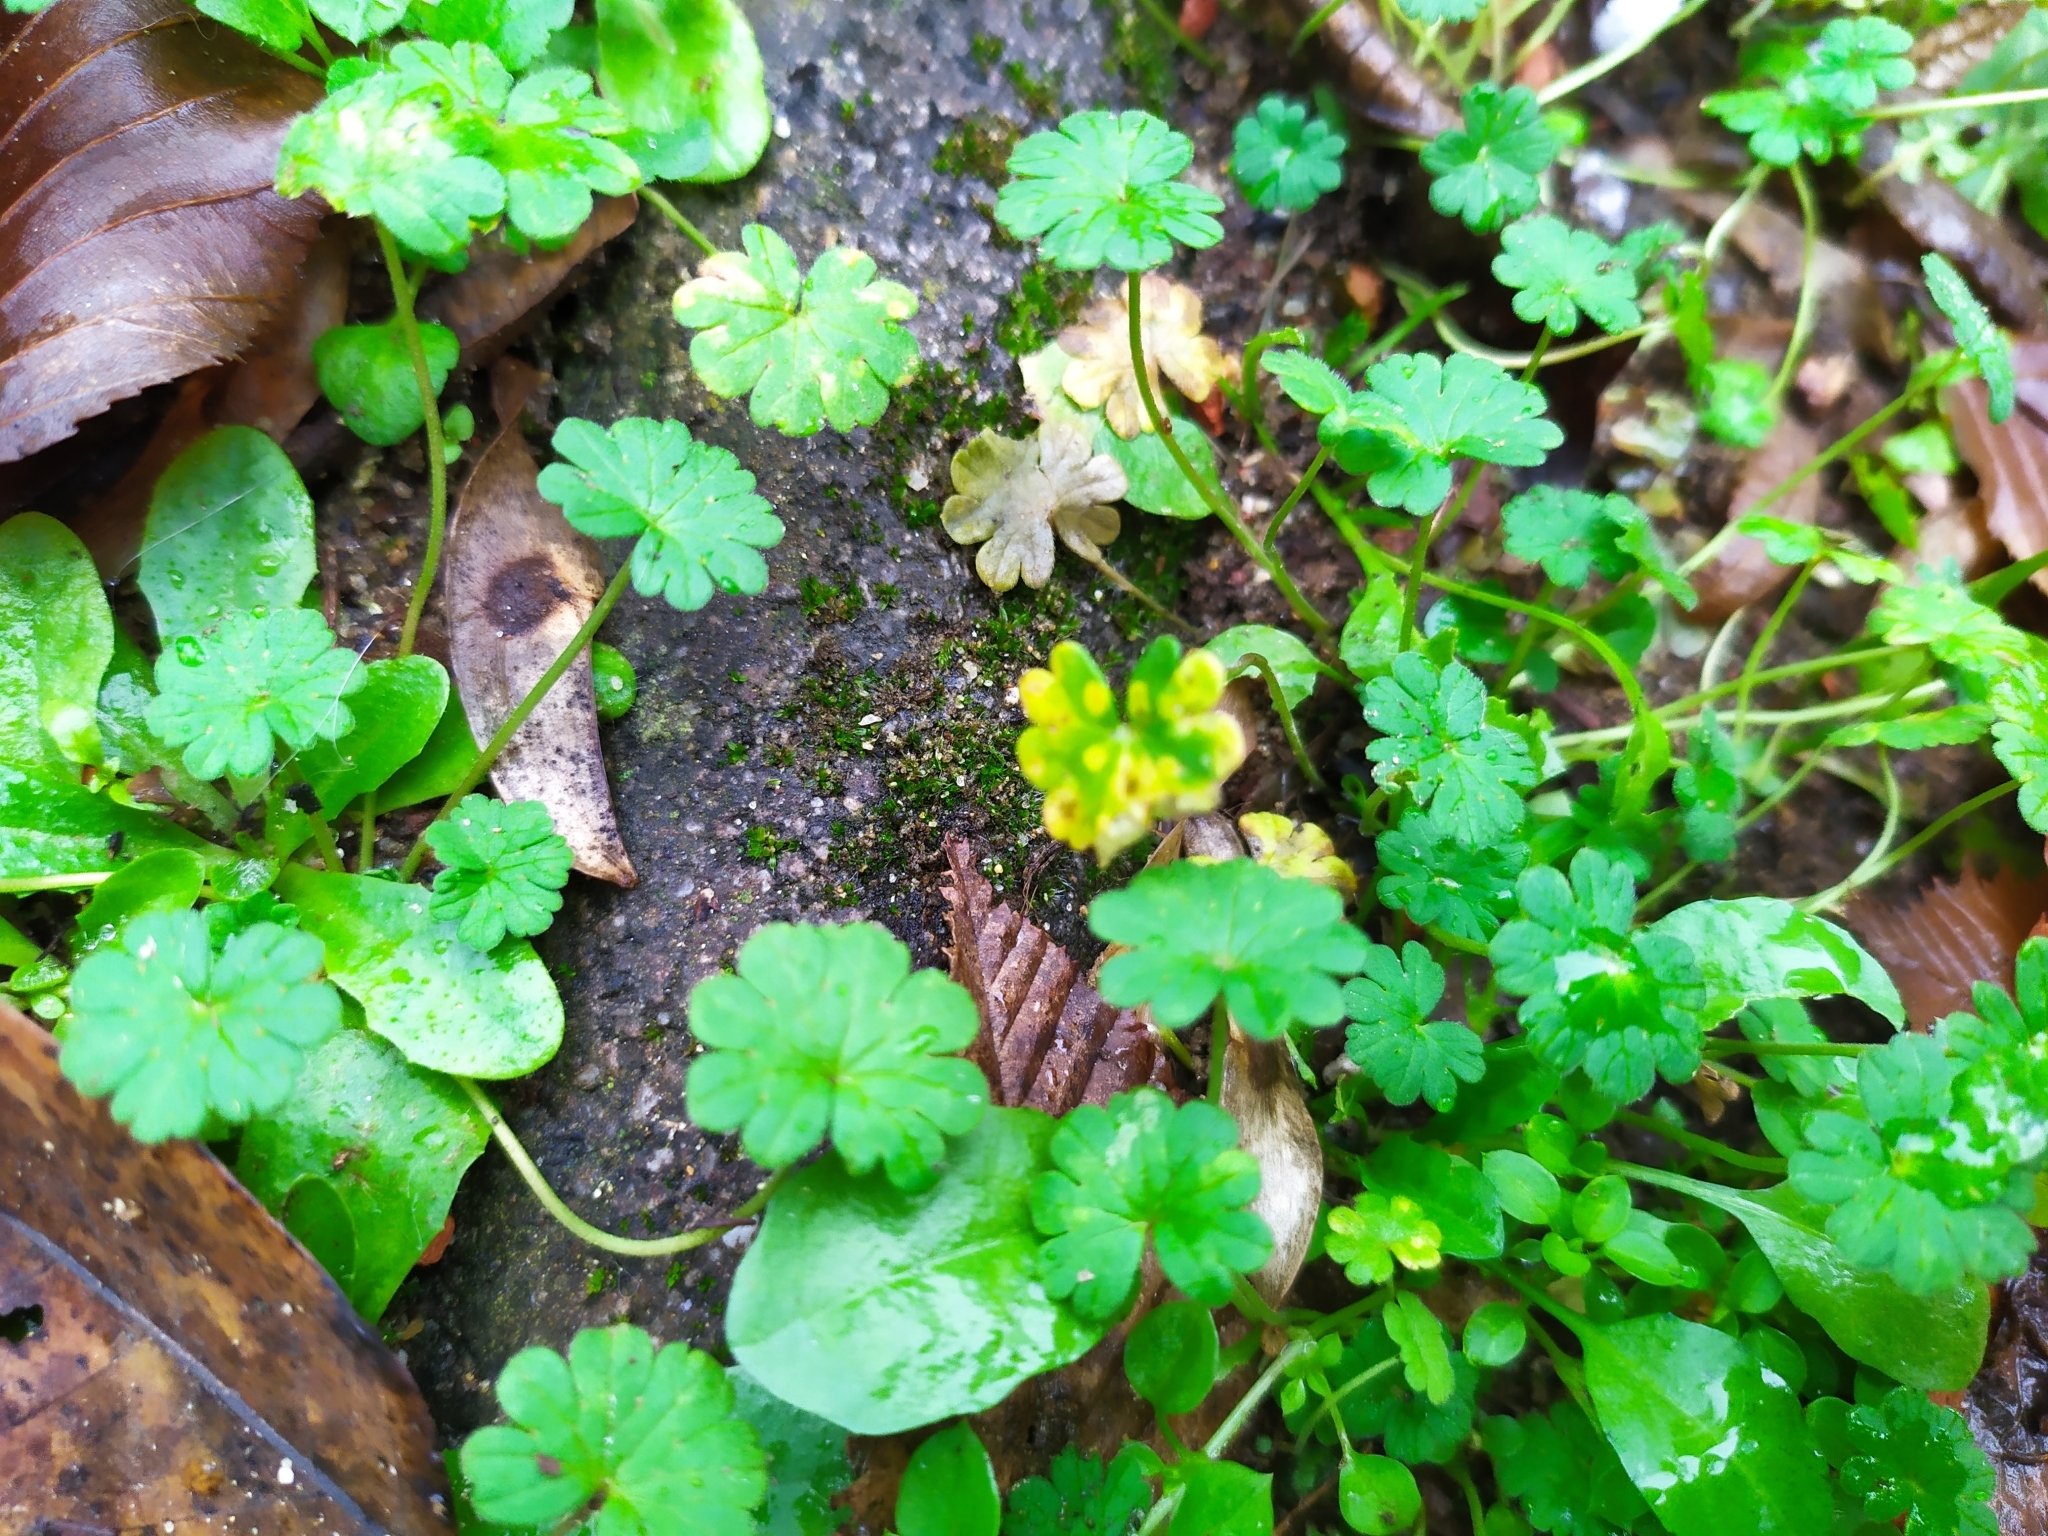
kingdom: Plantae
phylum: Tracheophyta
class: Magnoliopsida
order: Geraniales
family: Geraniaceae
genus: Geranium
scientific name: Geranium pusillum
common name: Small geranium
